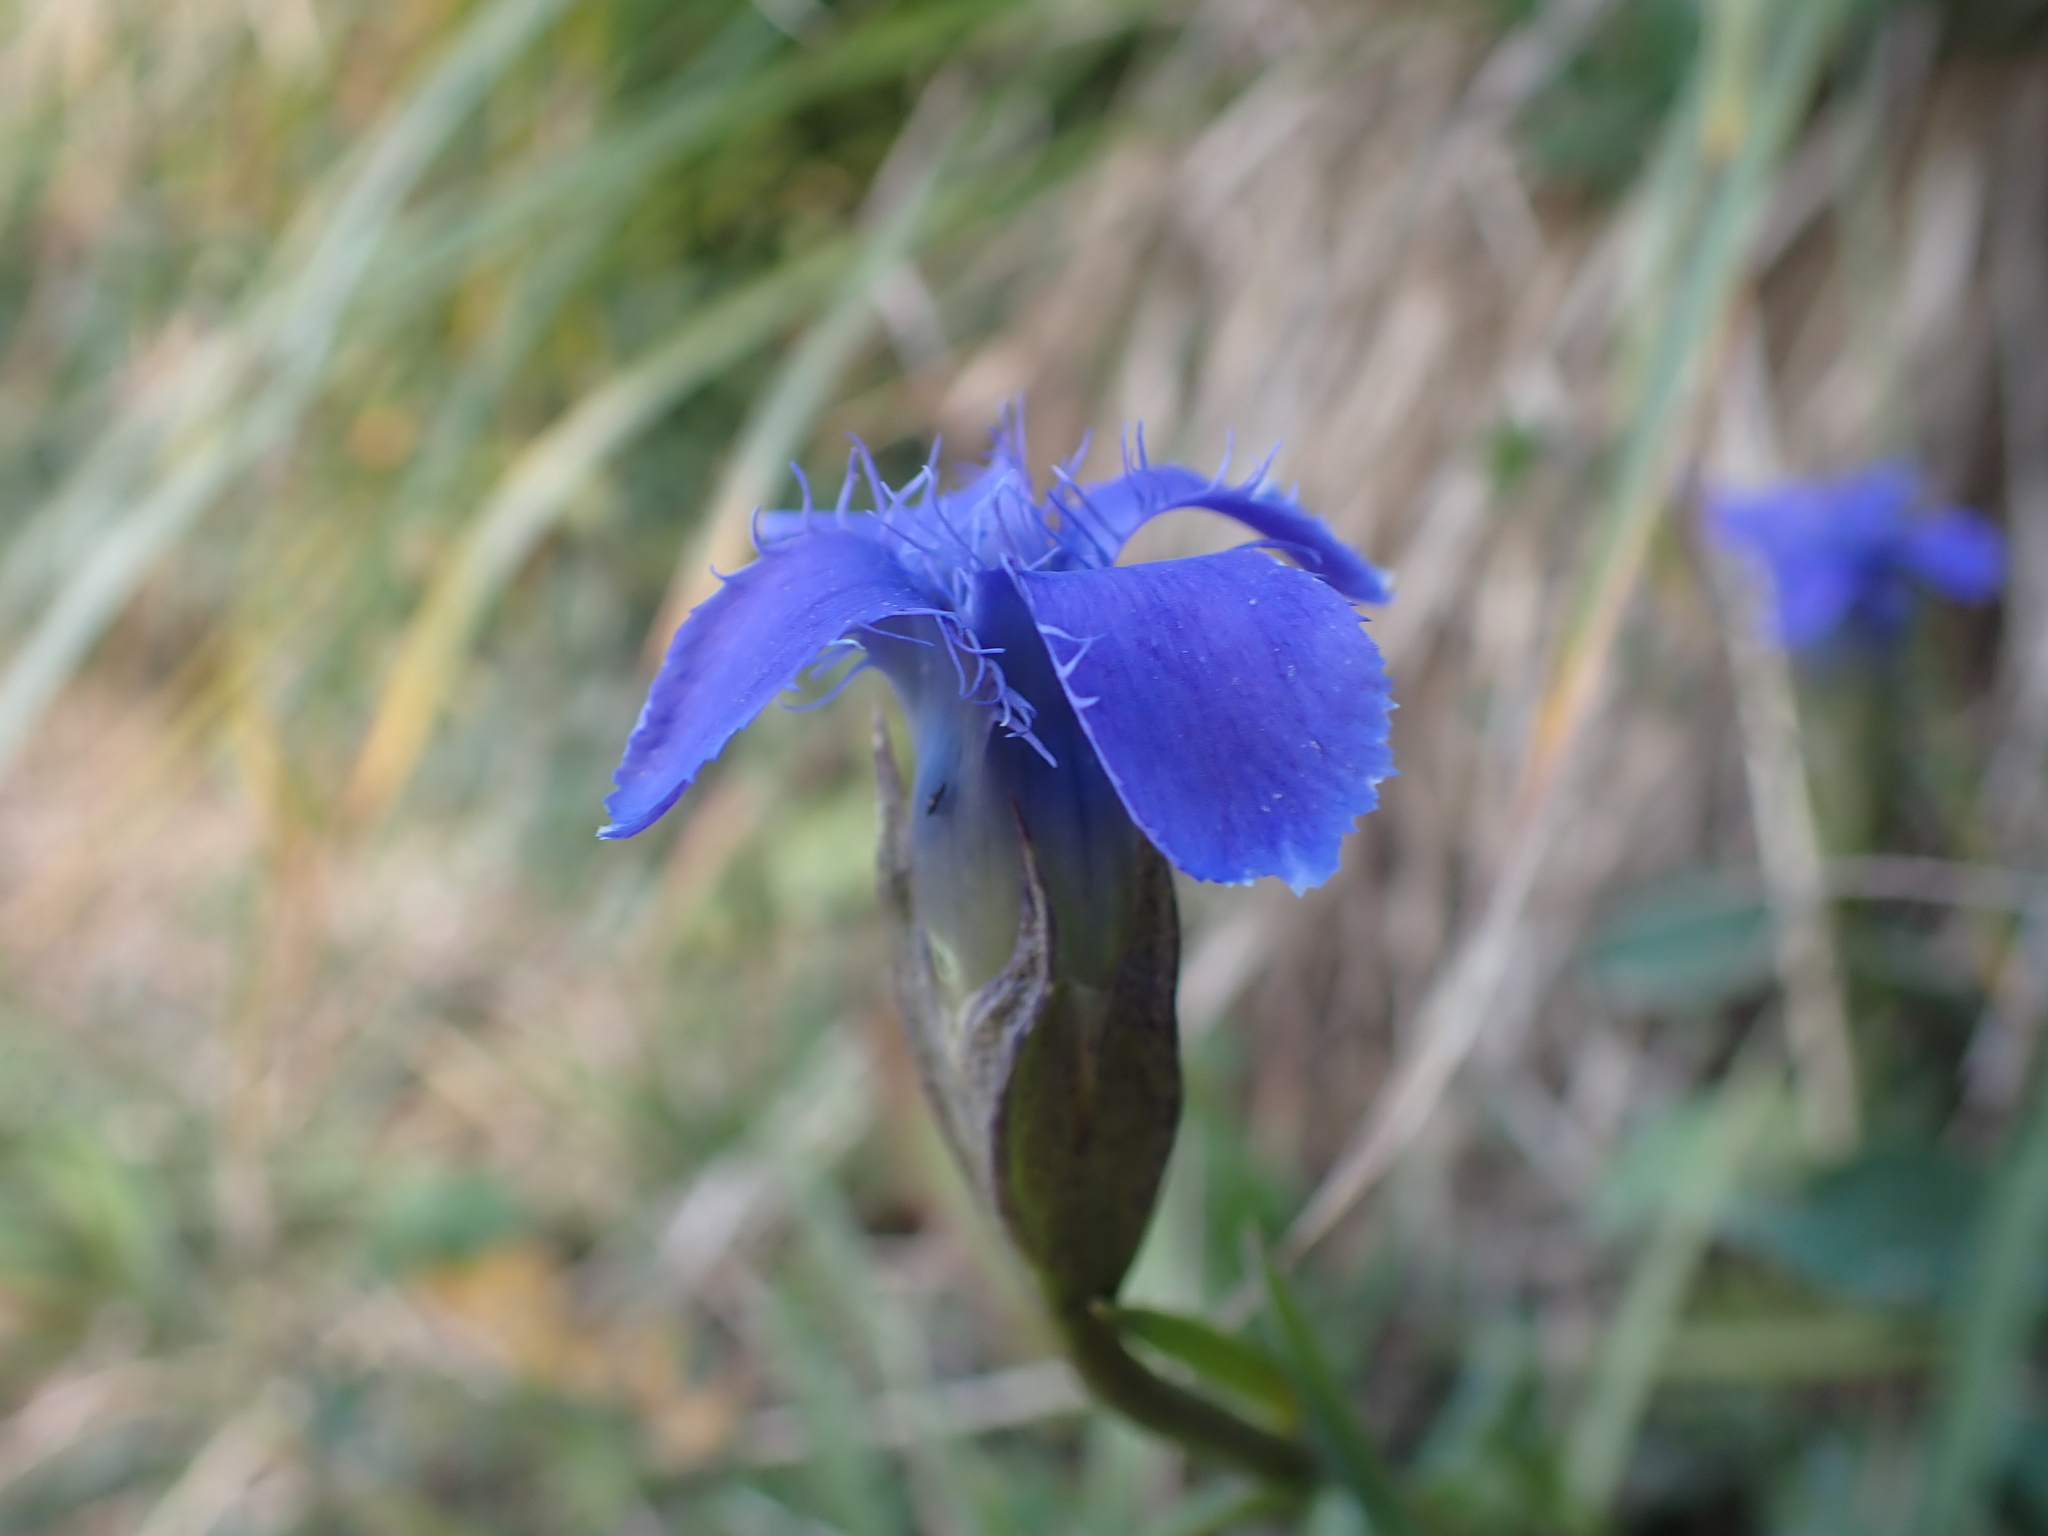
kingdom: Plantae
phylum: Tracheophyta
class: Magnoliopsida
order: Gentianales
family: Gentianaceae
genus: Gentianopsis
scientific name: Gentianopsis ciliata
